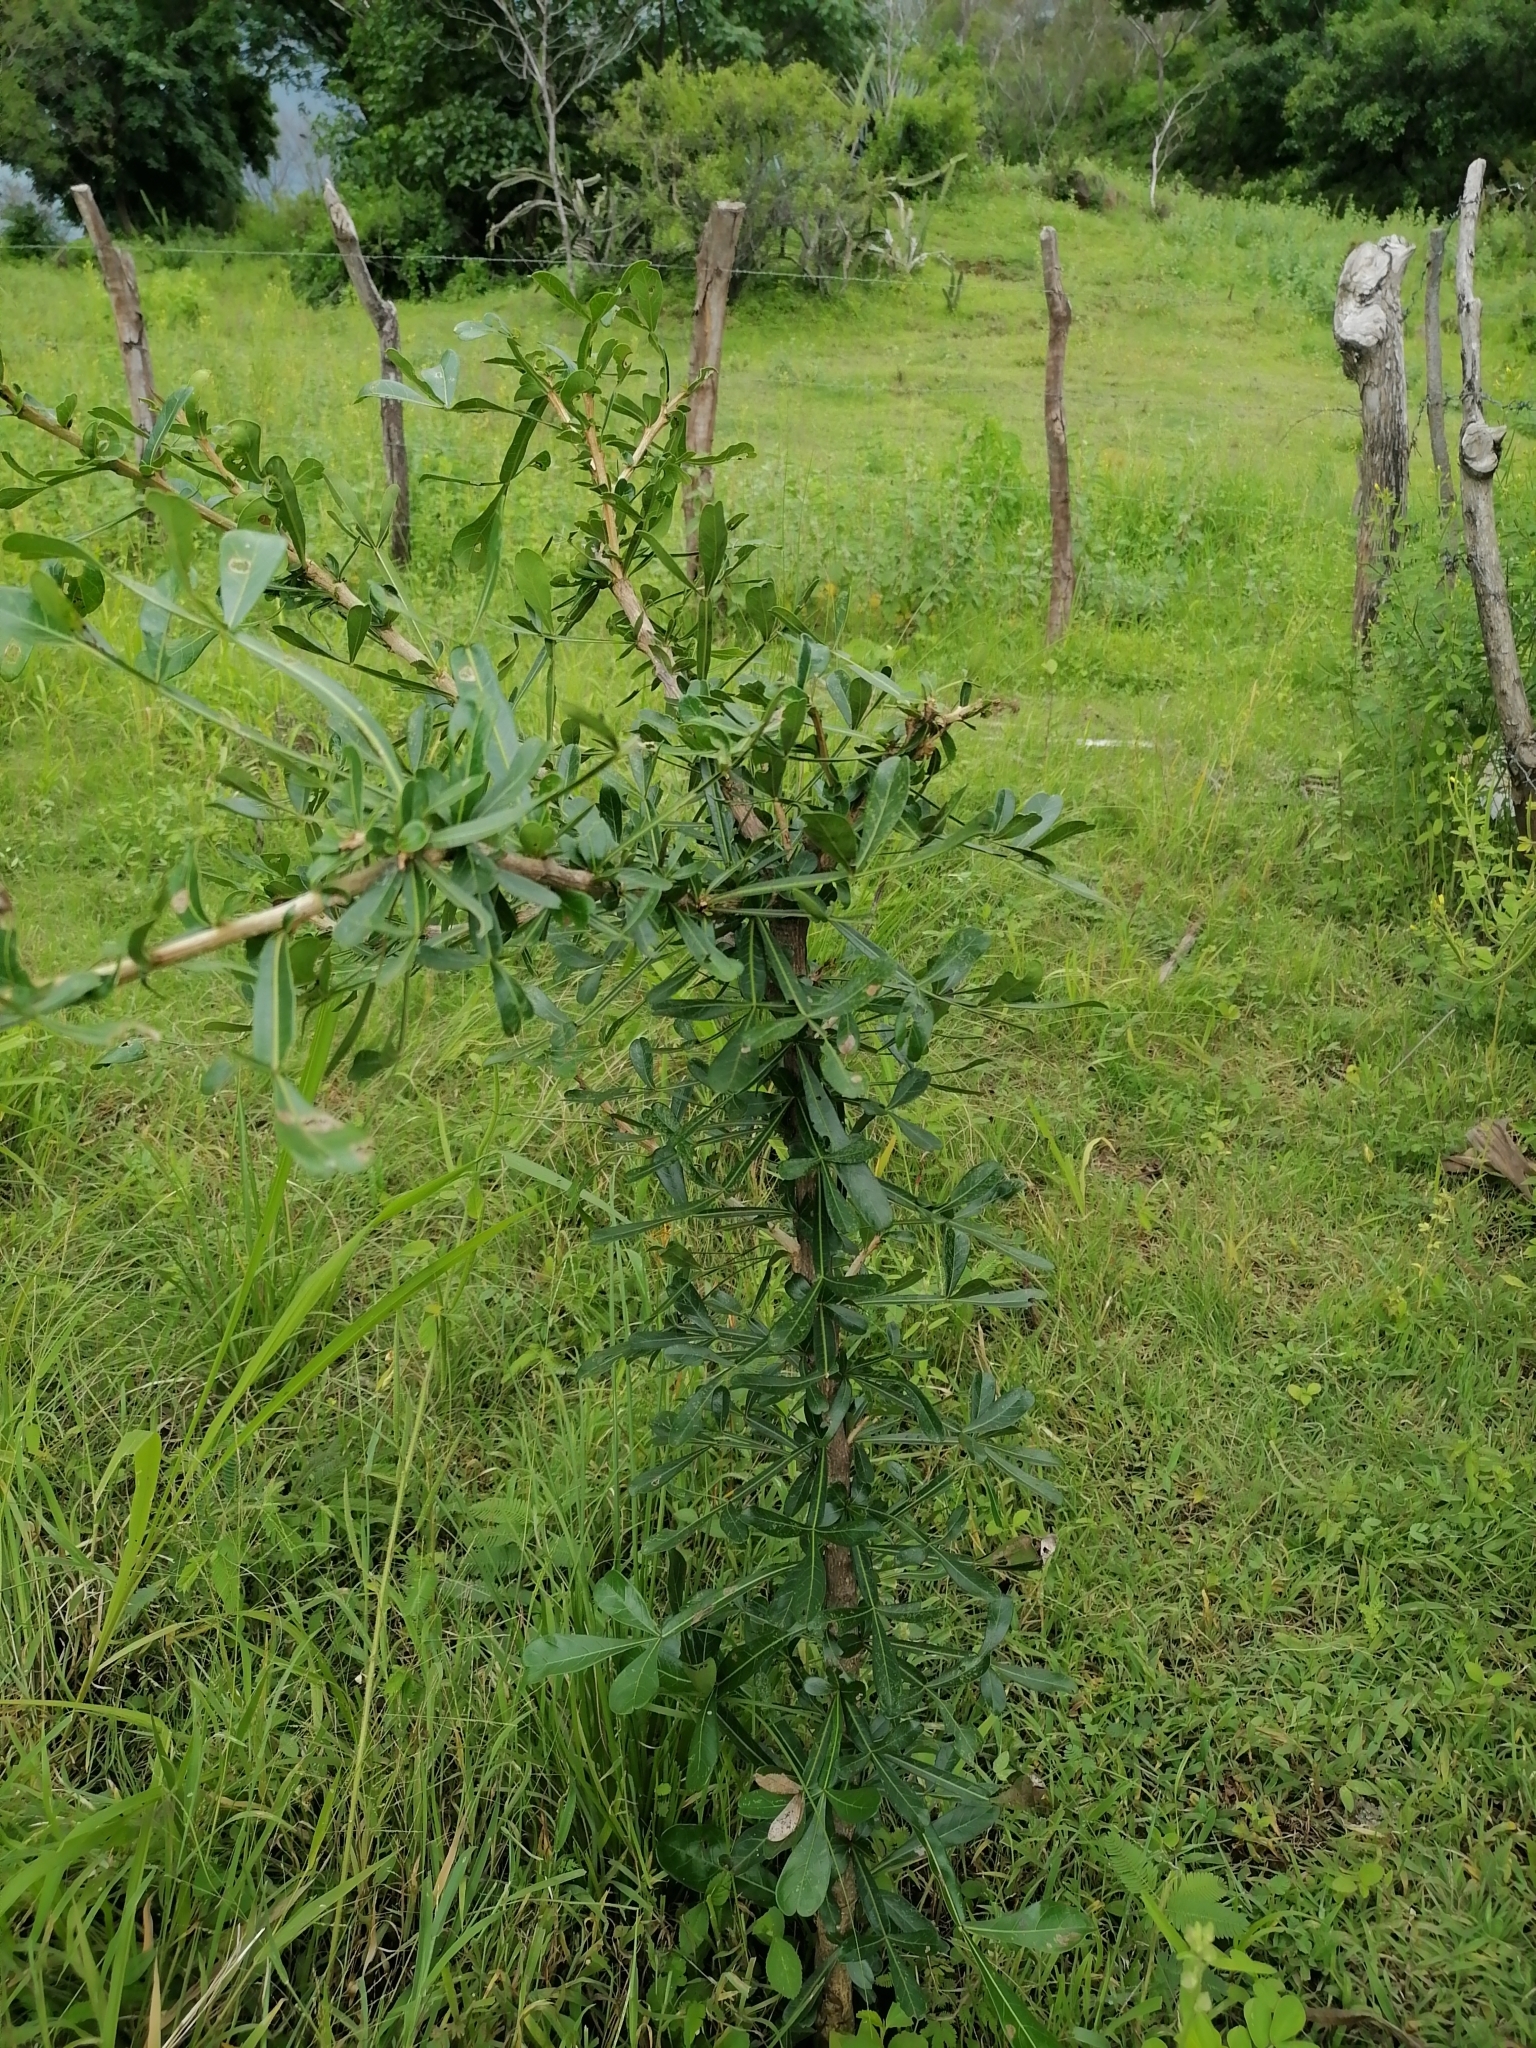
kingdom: Plantae
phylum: Tracheophyta
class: Magnoliopsida
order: Lamiales
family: Bignoniaceae
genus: Crescentia
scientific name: Crescentia alata
